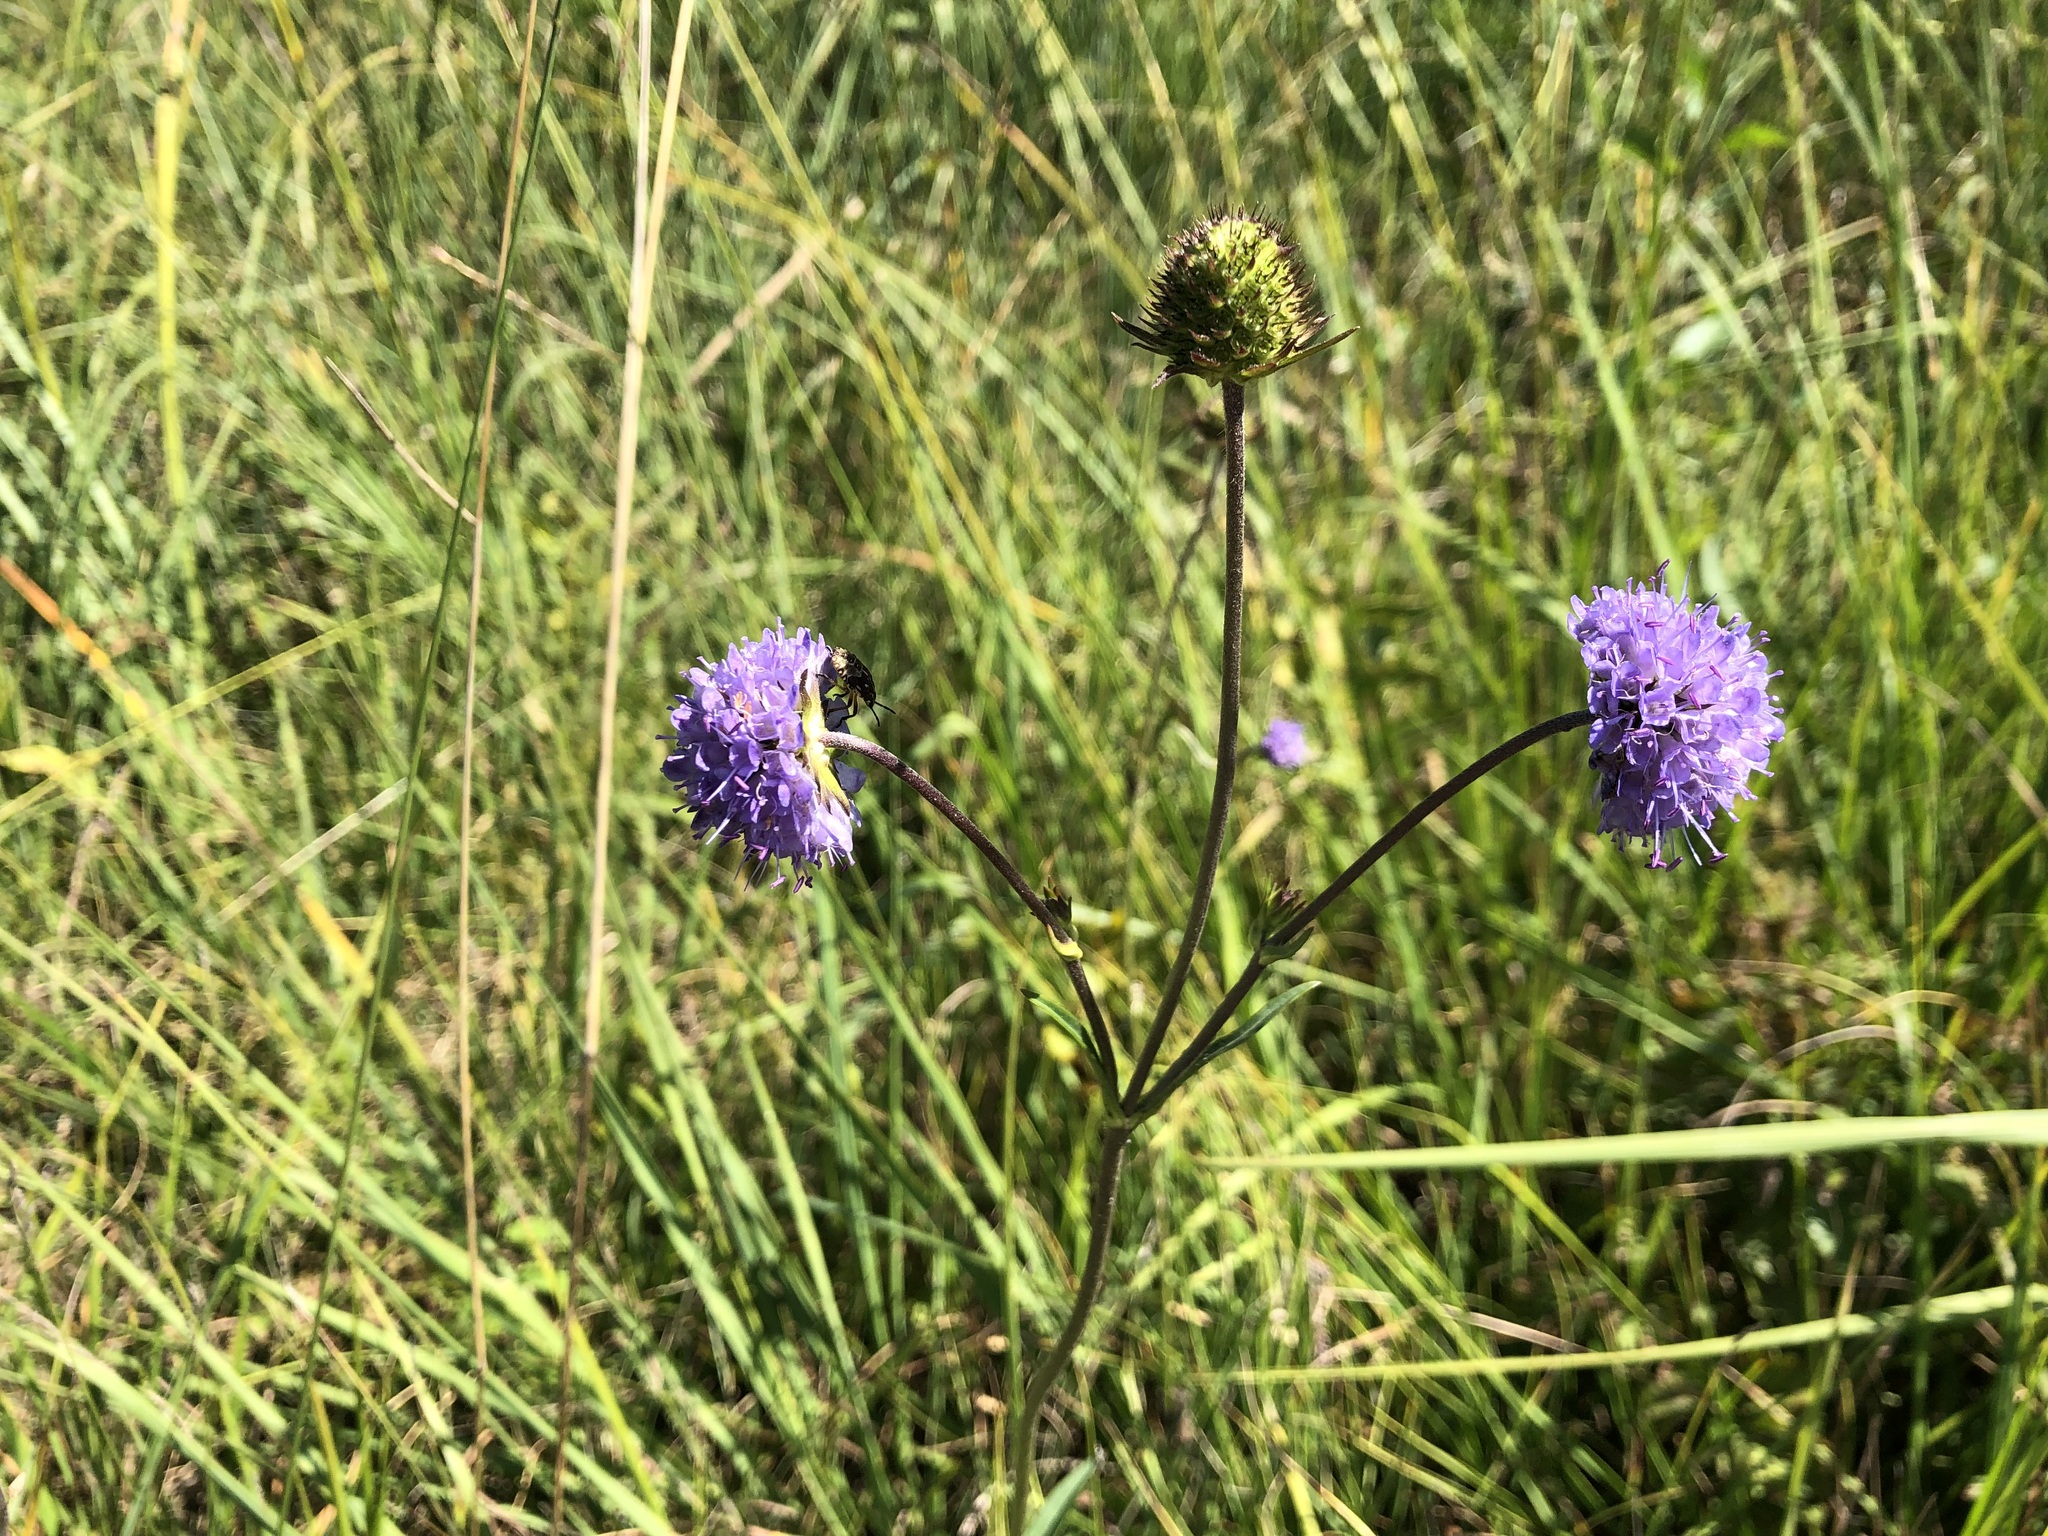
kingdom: Plantae
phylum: Tracheophyta
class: Magnoliopsida
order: Dipsacales
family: Caprifoliaceae
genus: Succisa
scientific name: Succisa pratensis
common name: Devil's-bit
